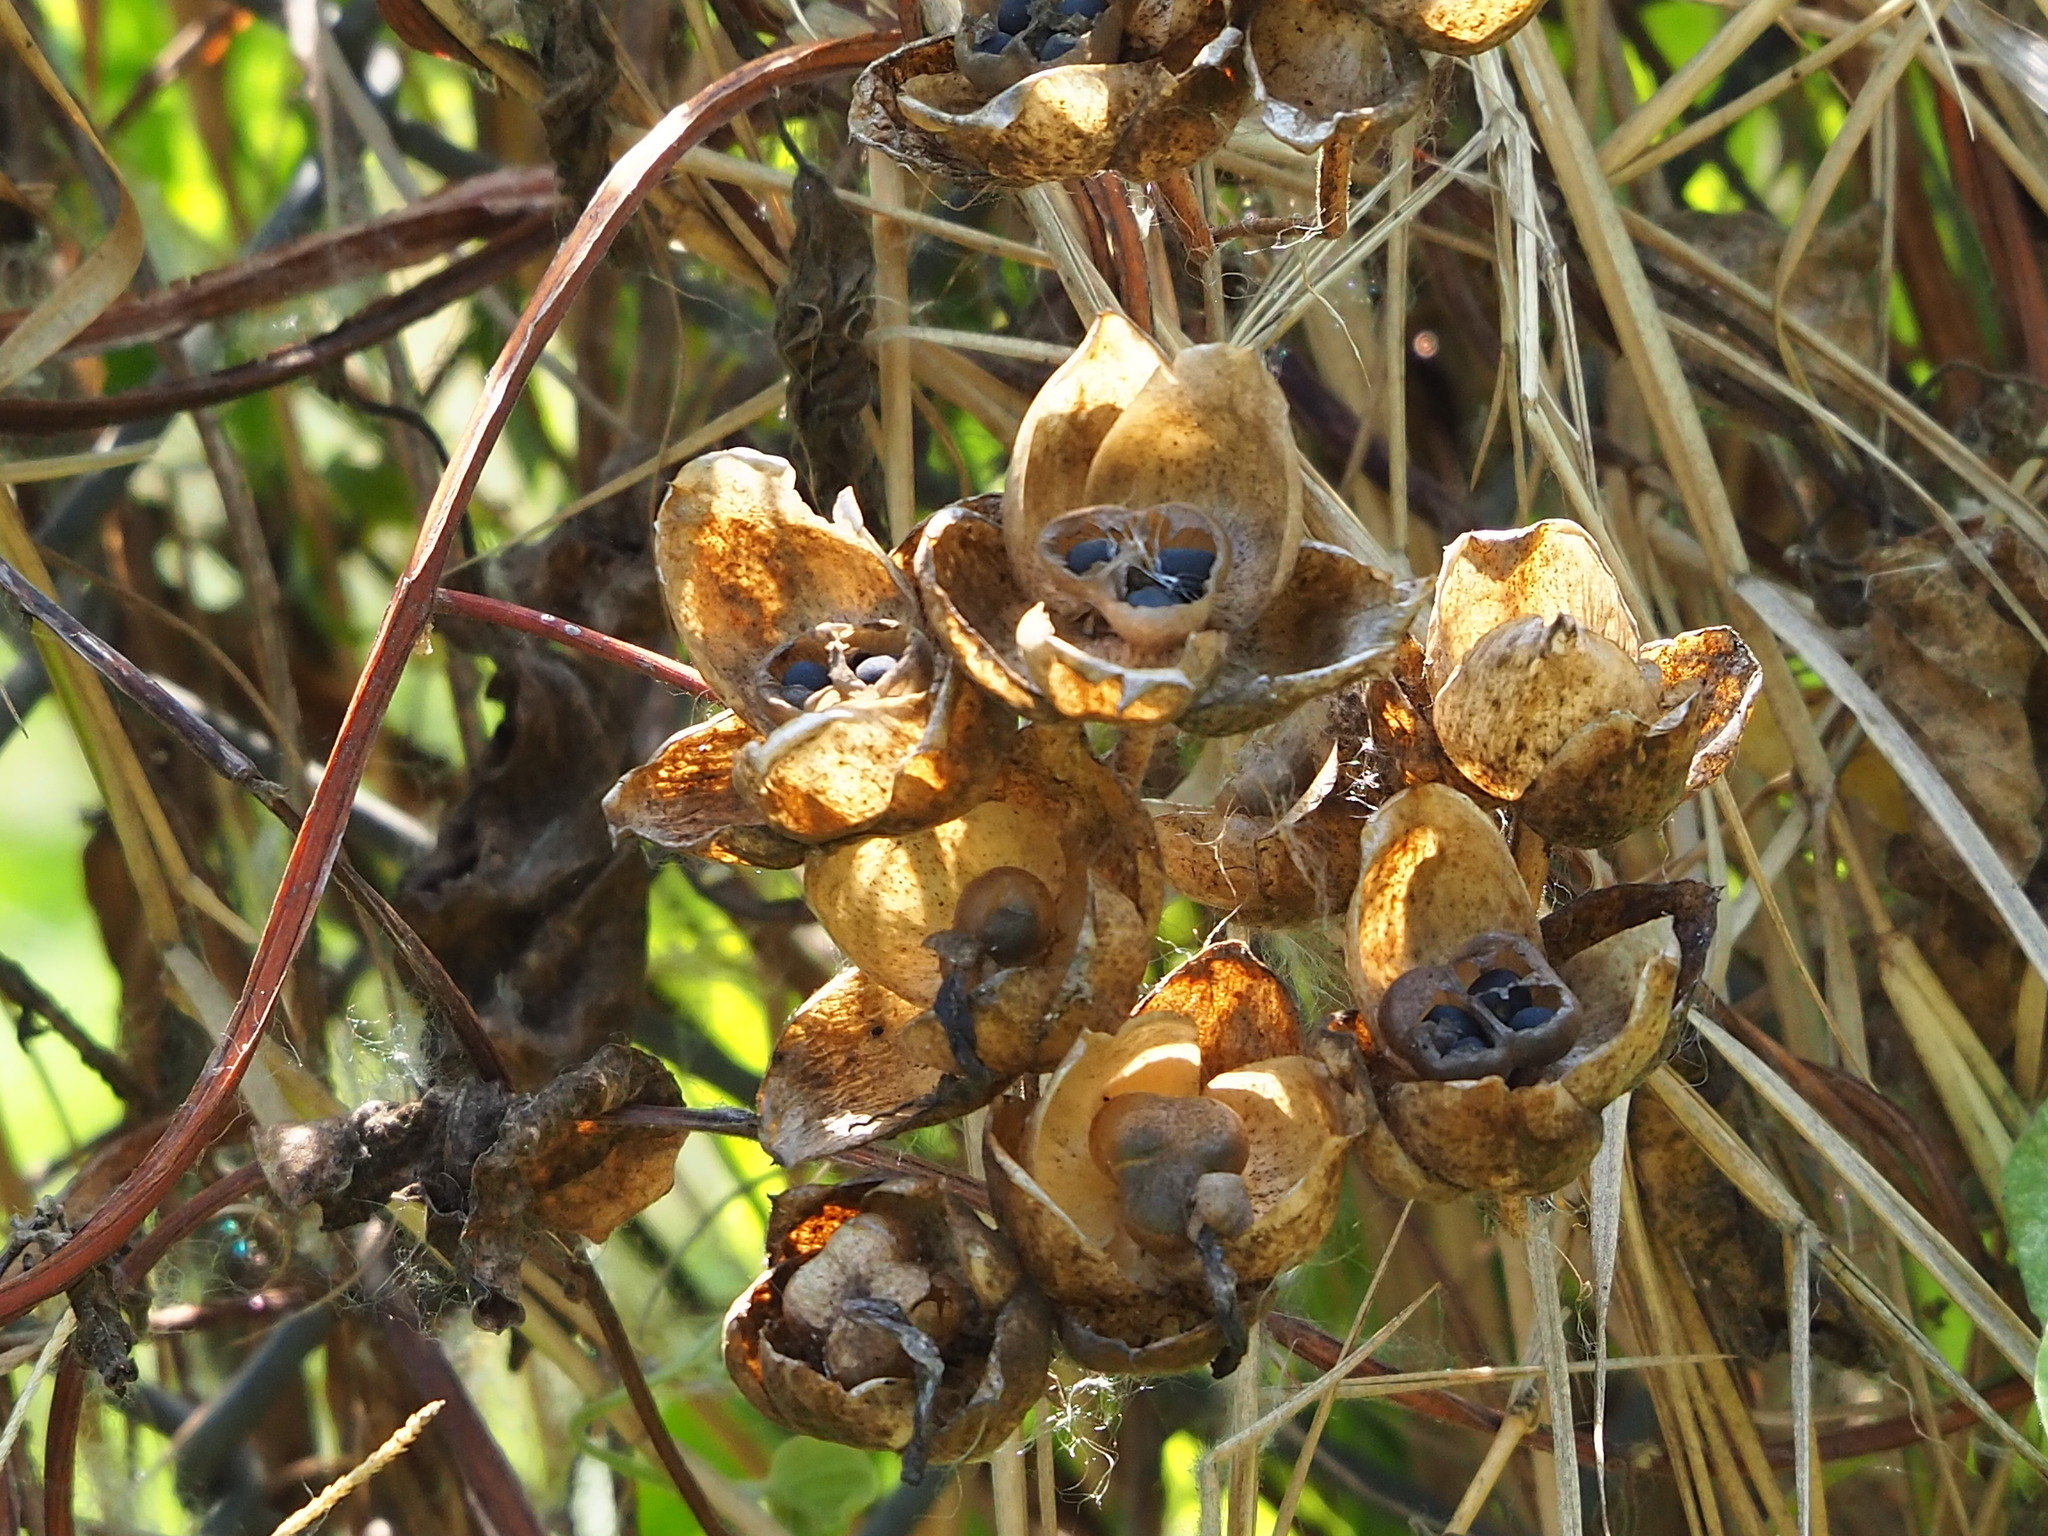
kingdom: Plantae
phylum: Tracheophyta
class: Magnoliopsida
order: Solanales
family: Convolvulaceae
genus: Operculina
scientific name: Operculina turpethum
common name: Transparent wood-rose
